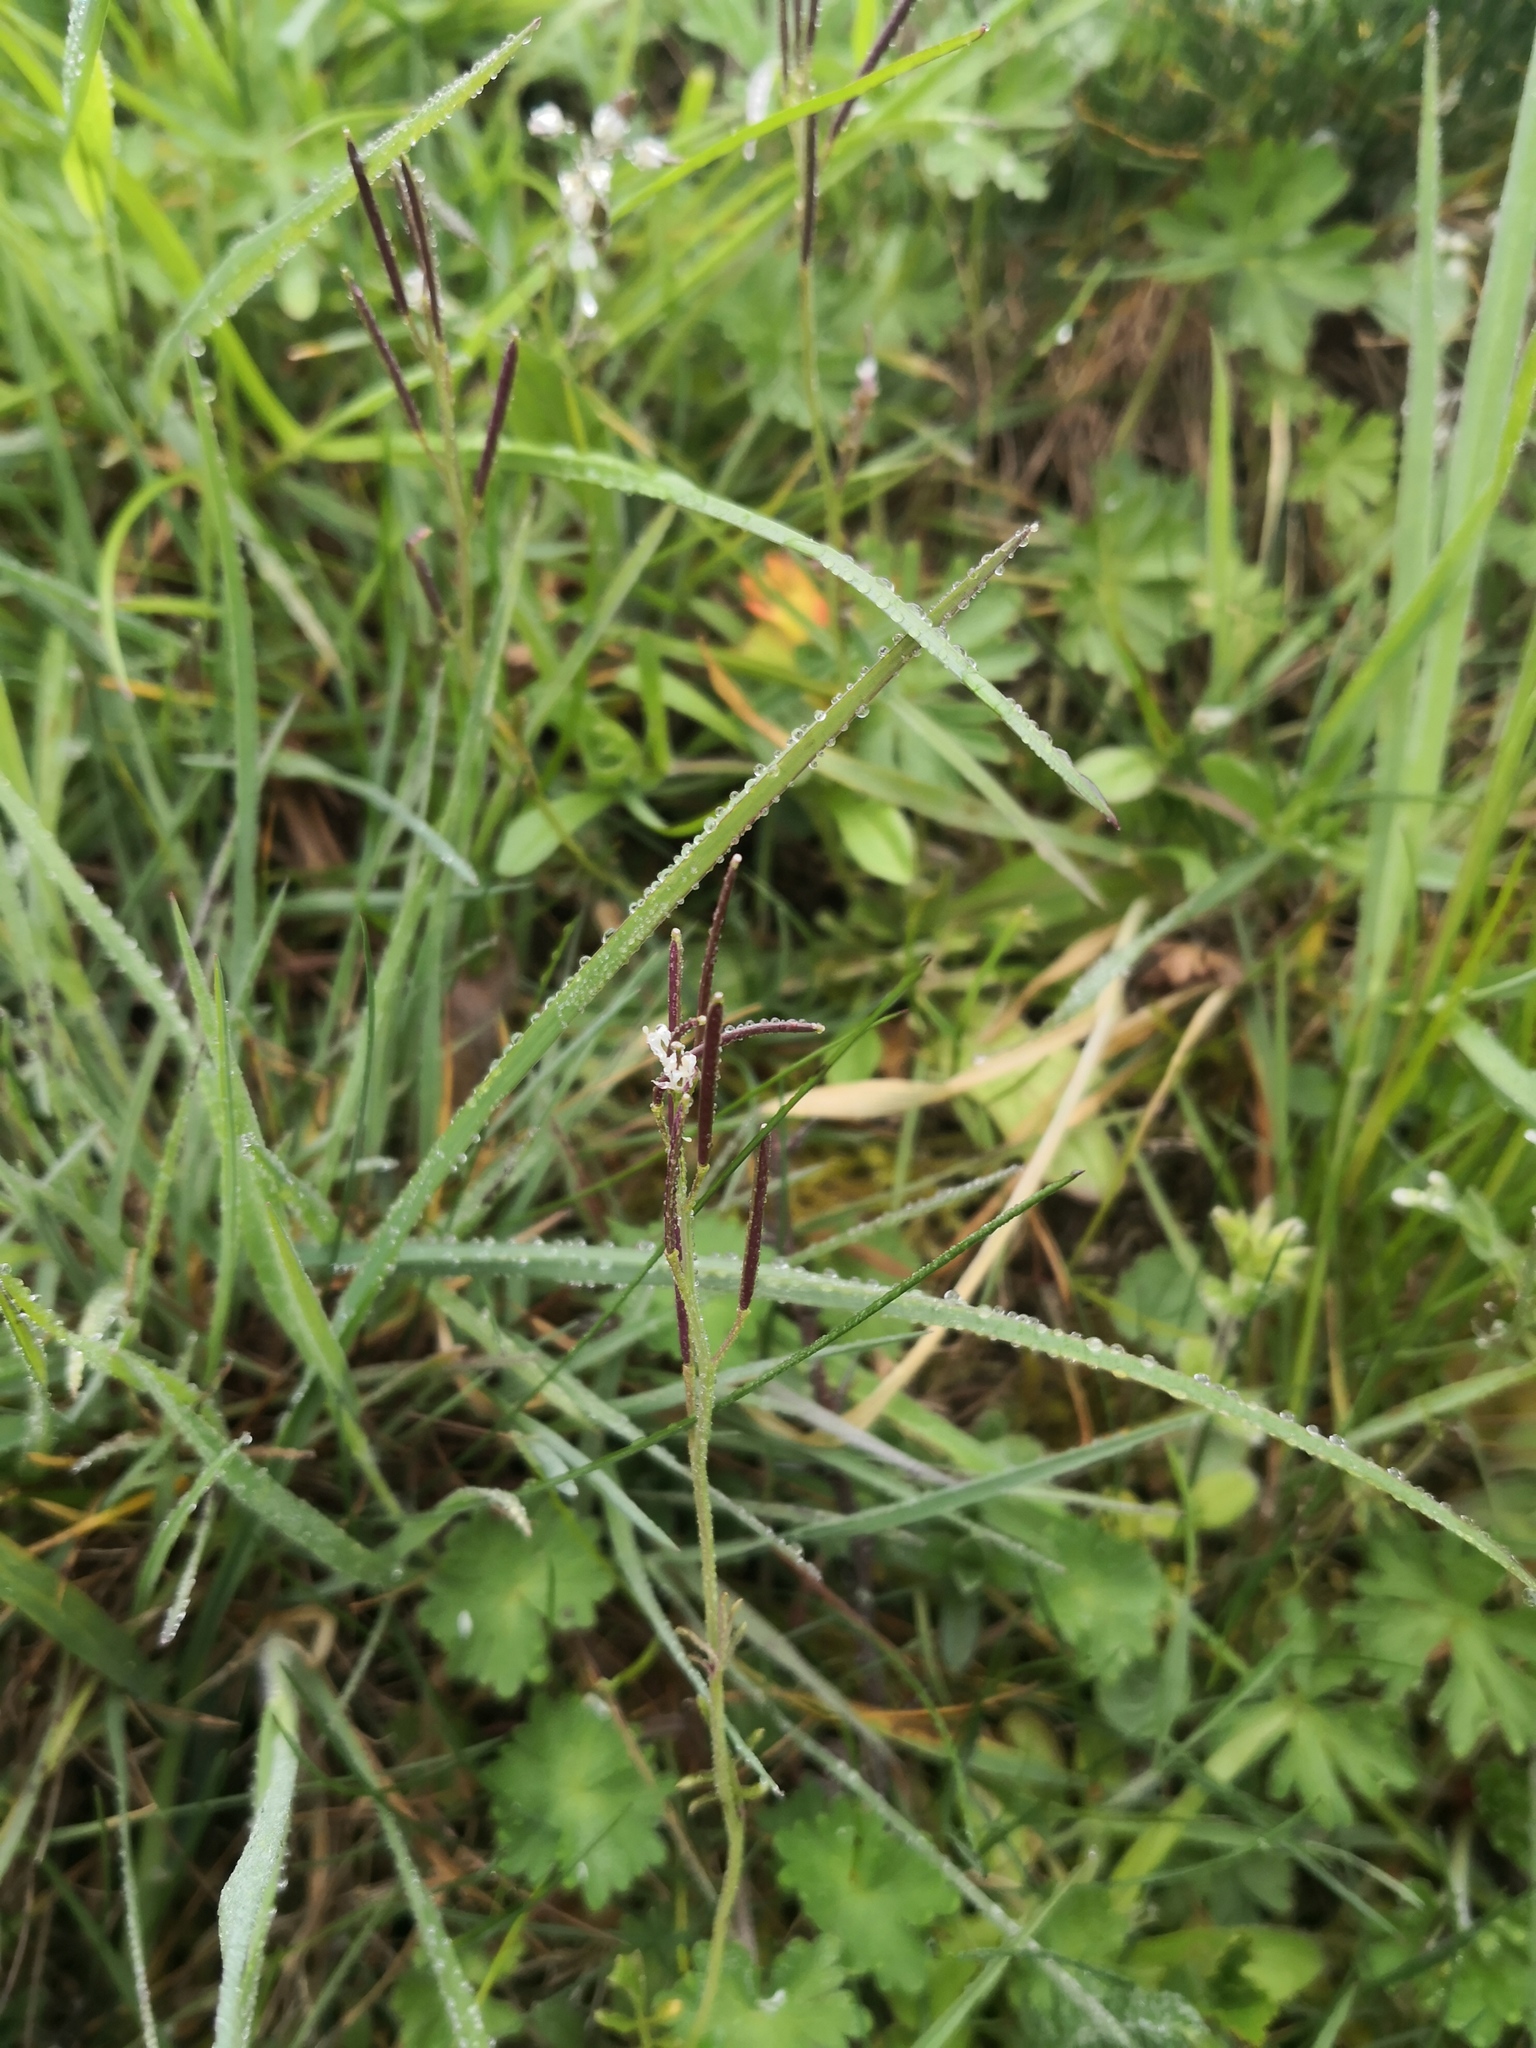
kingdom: Plantae
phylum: Tracheophyta
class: Magnoliopsida
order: Brassicales
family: Brassicaceae
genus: Cardamine
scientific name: Cardamine hirsuta
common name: Hairy bittercress
